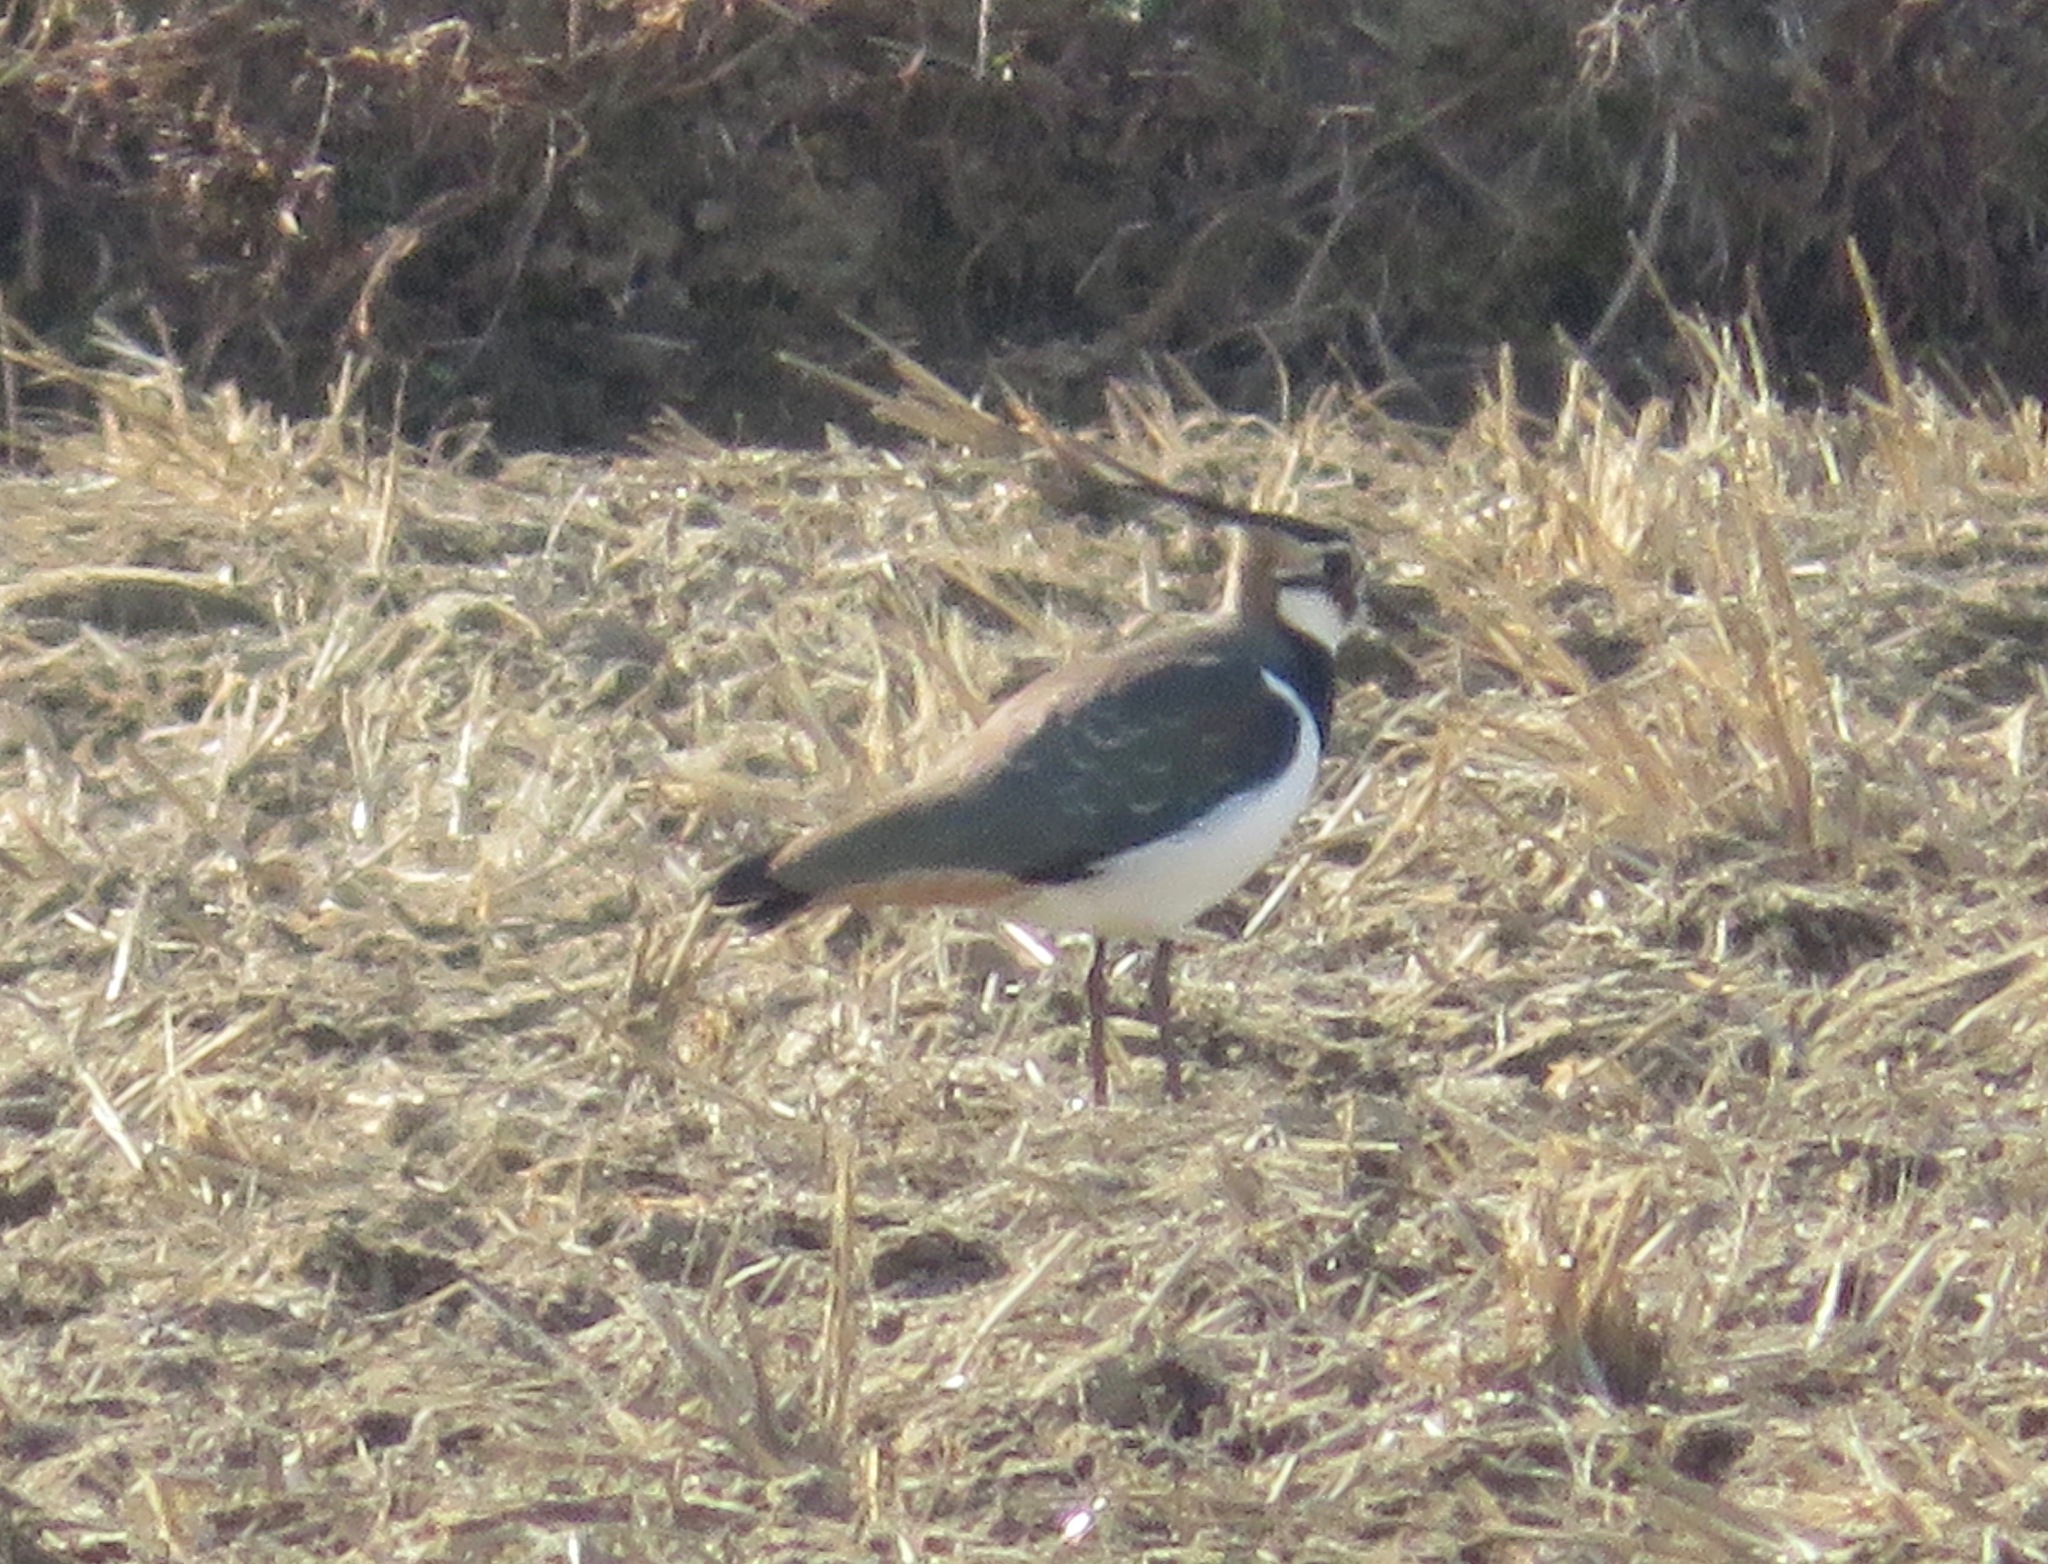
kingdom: Animalia
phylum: Chordata
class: Aves
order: Charadriiformes
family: Charadriidae
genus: Vanellus
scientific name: Vanellus vanellus
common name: Northern lapwing
